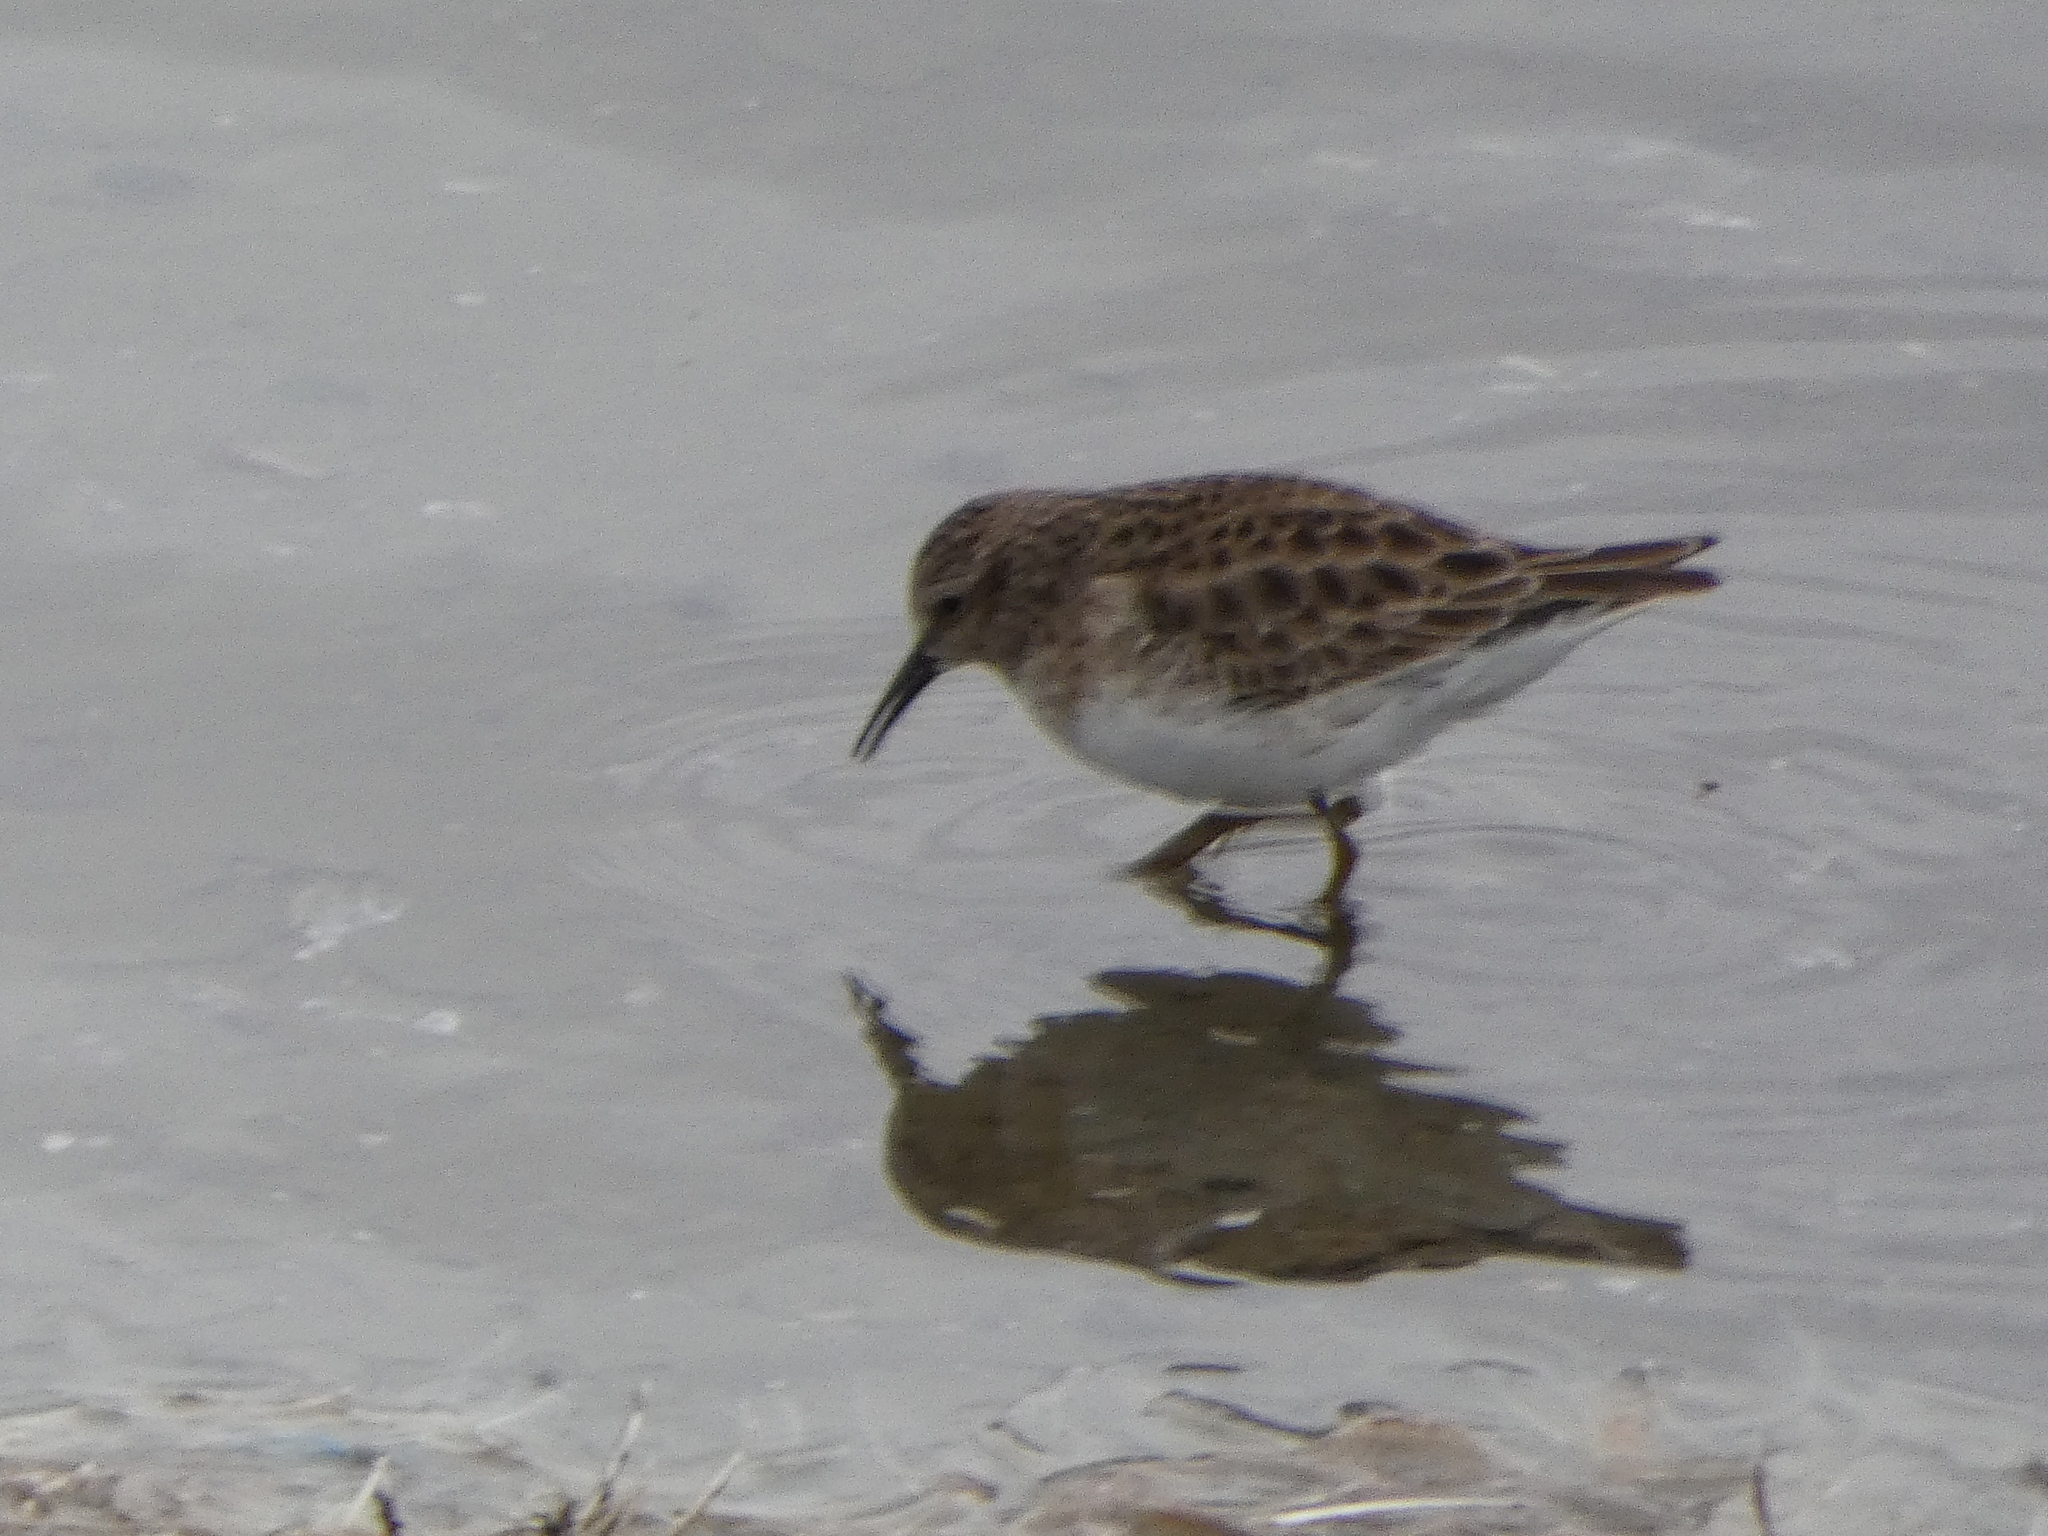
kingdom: Animalia
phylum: Chordata
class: Aves
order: Charadriiformes
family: Scolopacidae
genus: Calidris
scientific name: Calidris minutilla
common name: Least sandpiper
